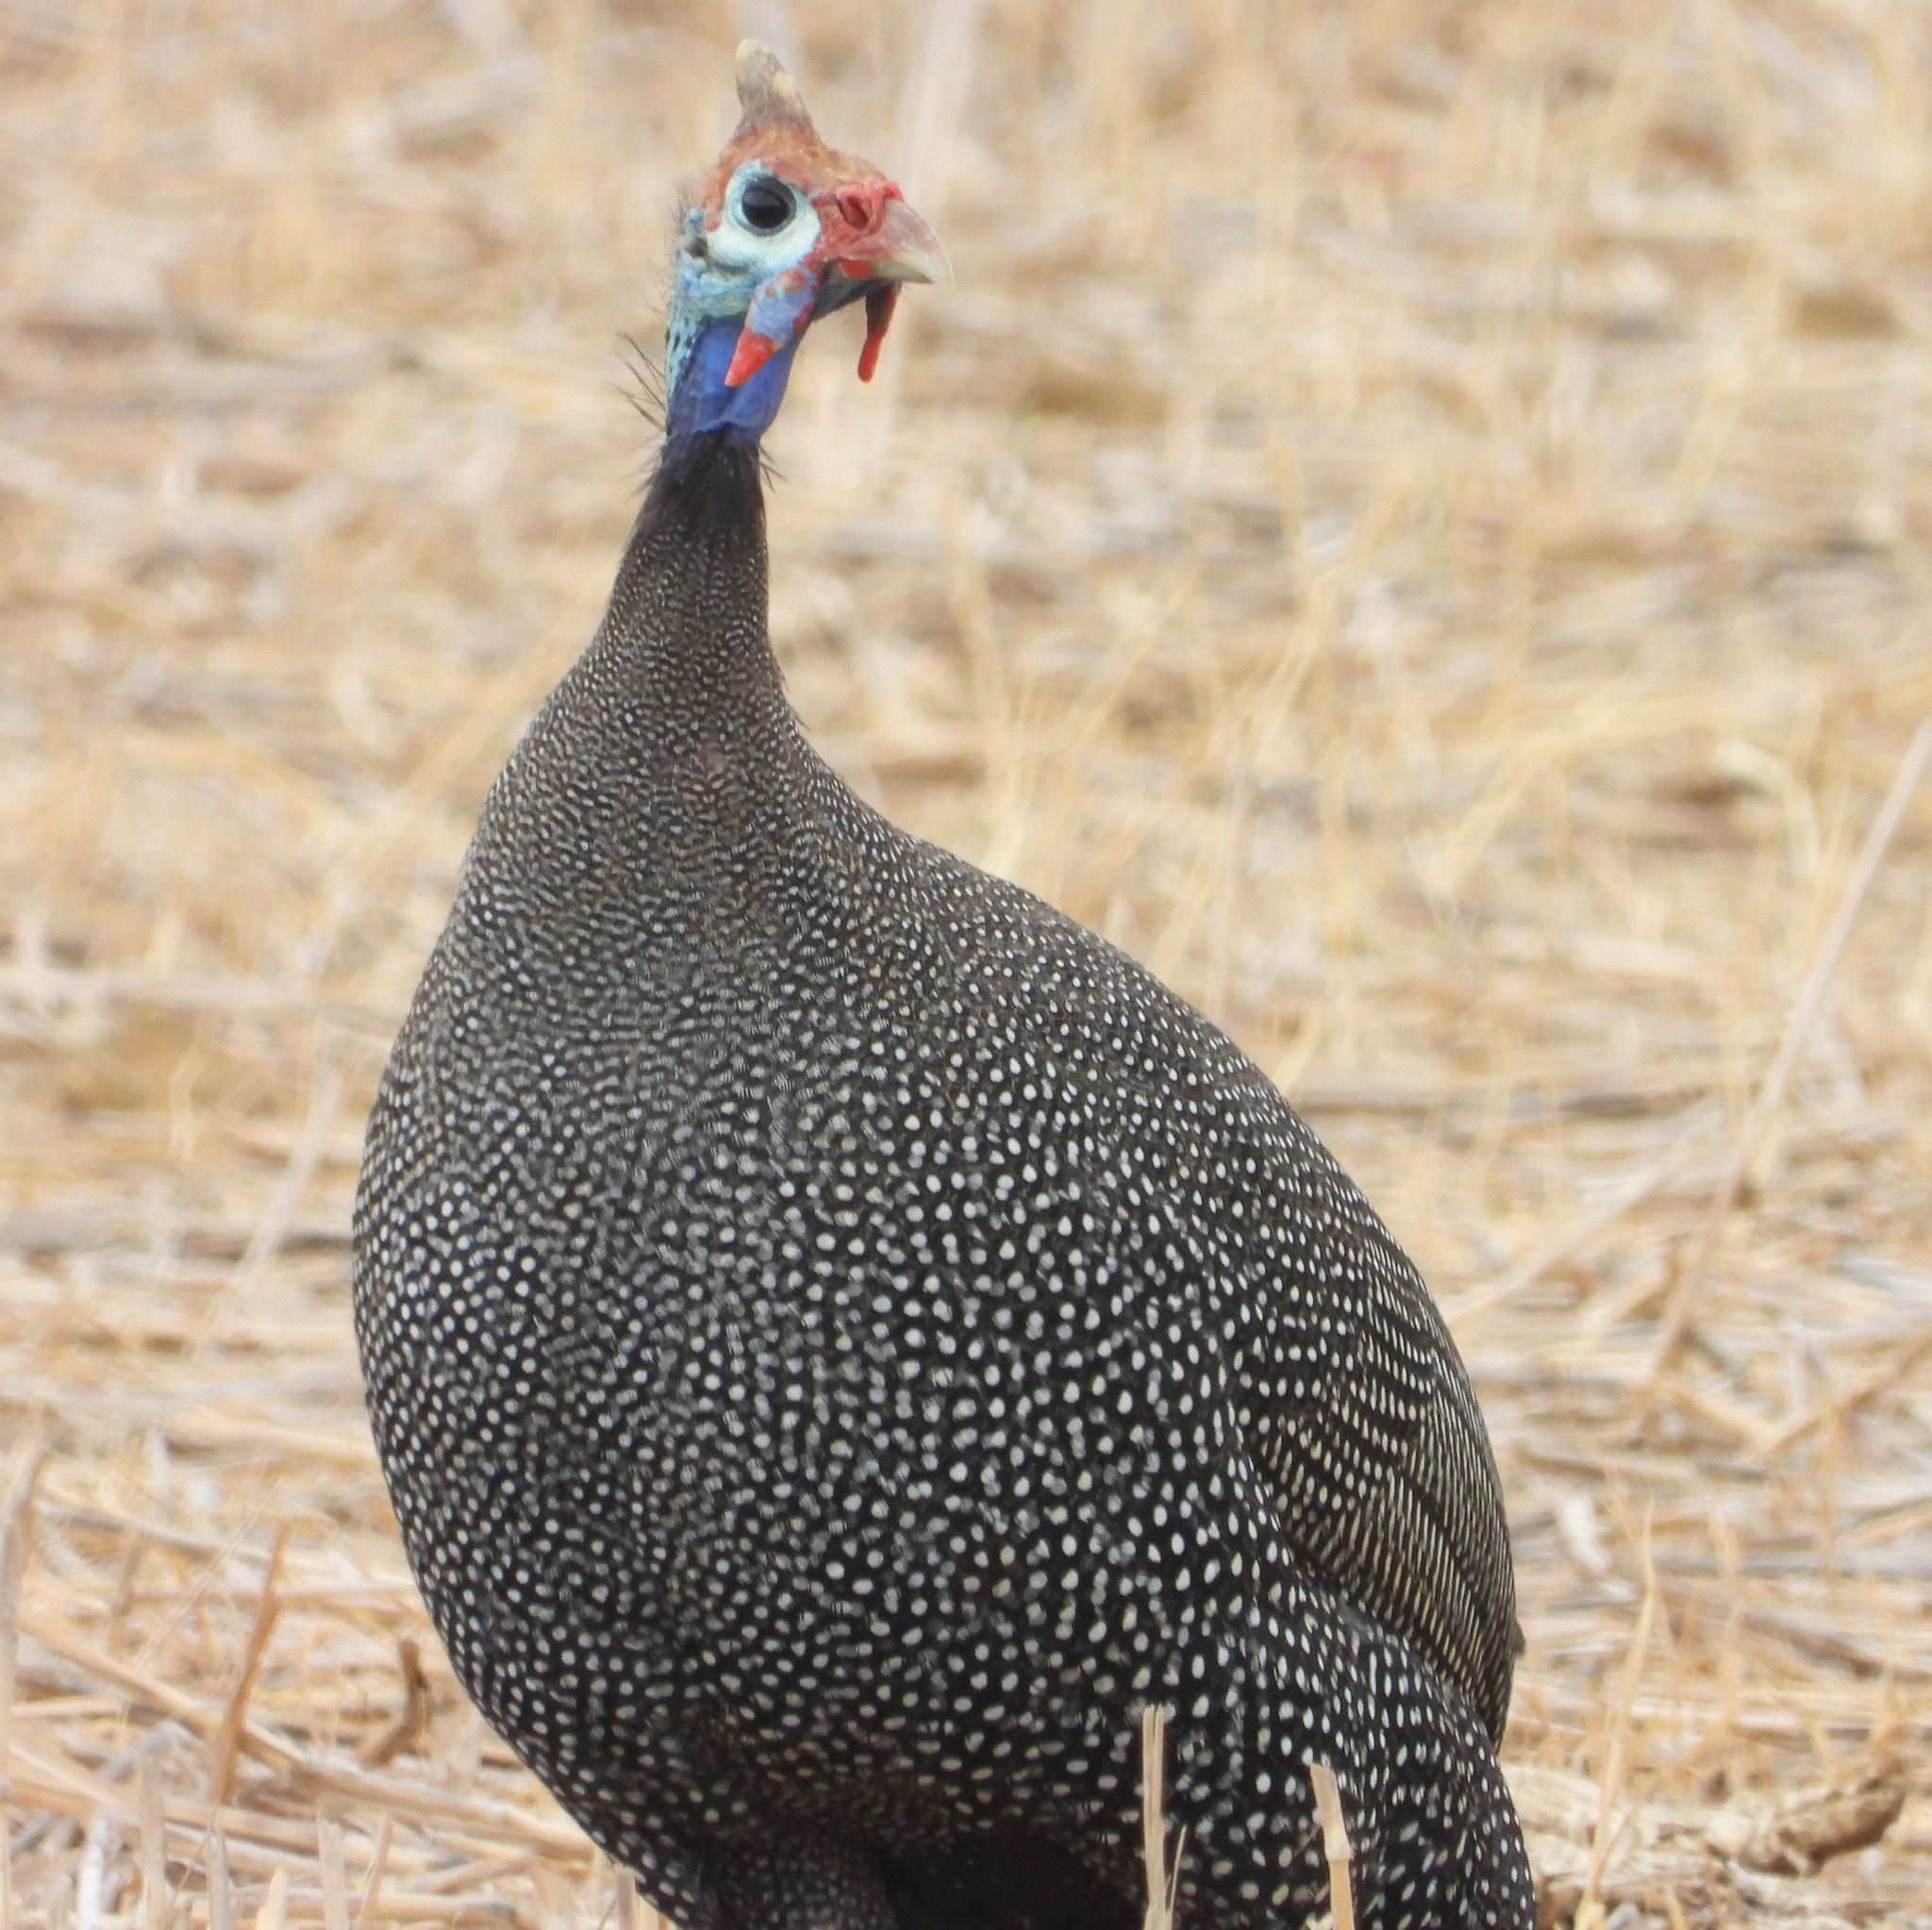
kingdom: Animalia
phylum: Chordata
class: Aves
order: Galliformes
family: Numididae
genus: Numida
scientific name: Numida meleagris
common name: Helmeted guineafowl
